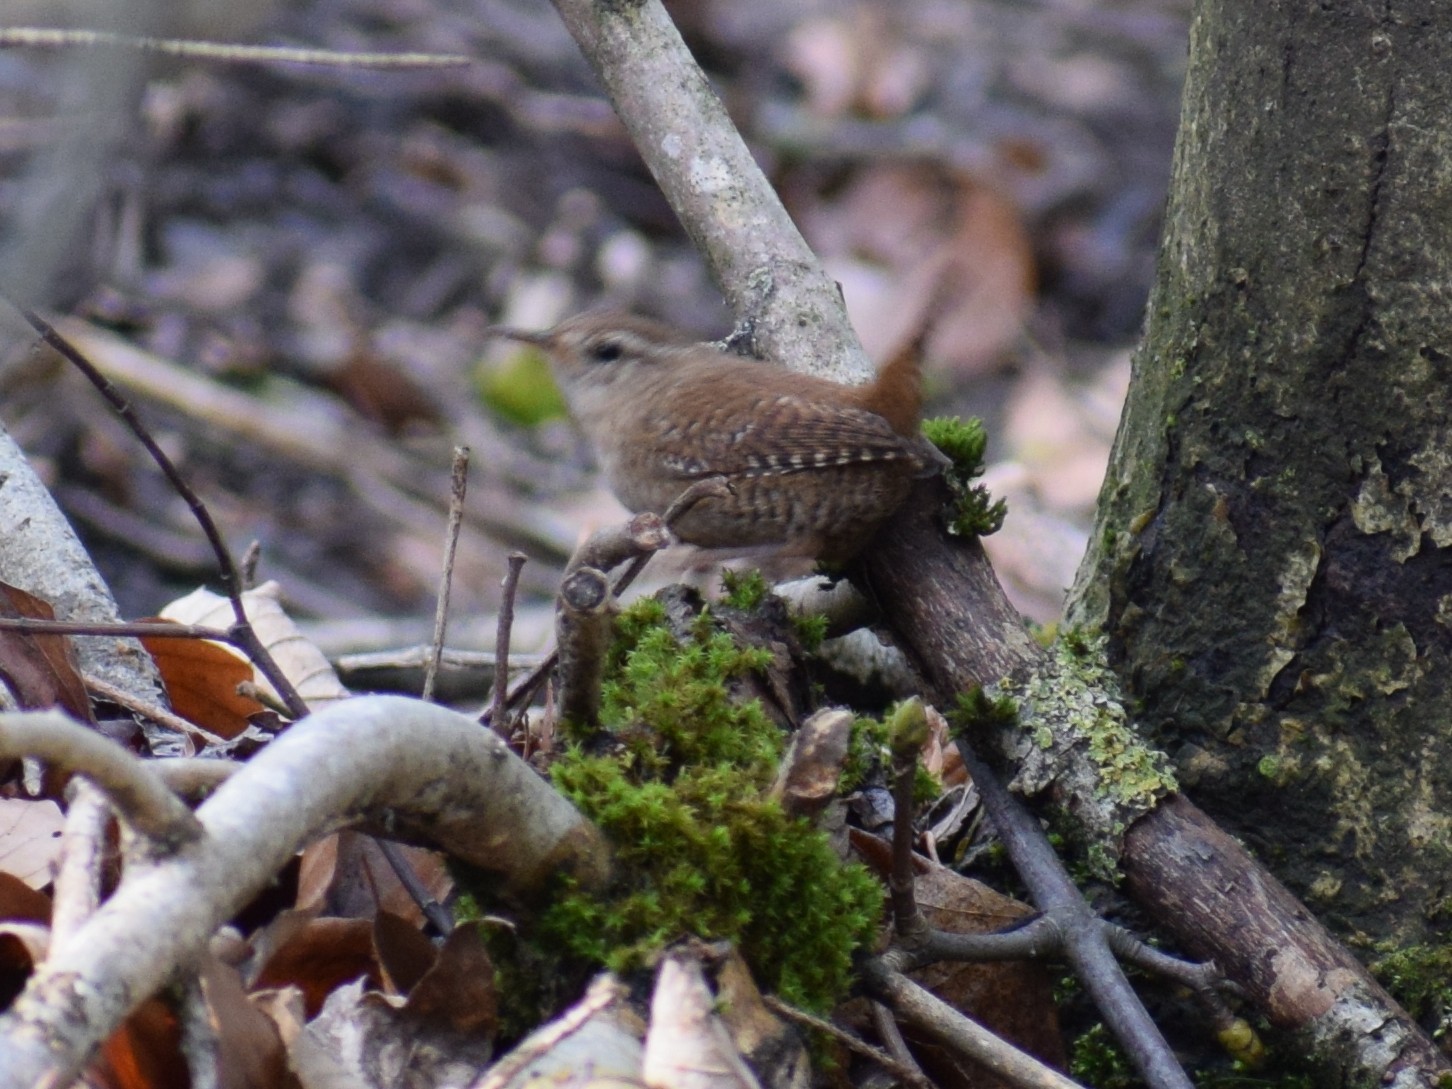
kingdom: Animalia
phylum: Chordata
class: Aves
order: Passeriformes
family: Troglodytidae
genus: Troglodytes
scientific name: Troglodytes troglodytes
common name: Eurasian wren
